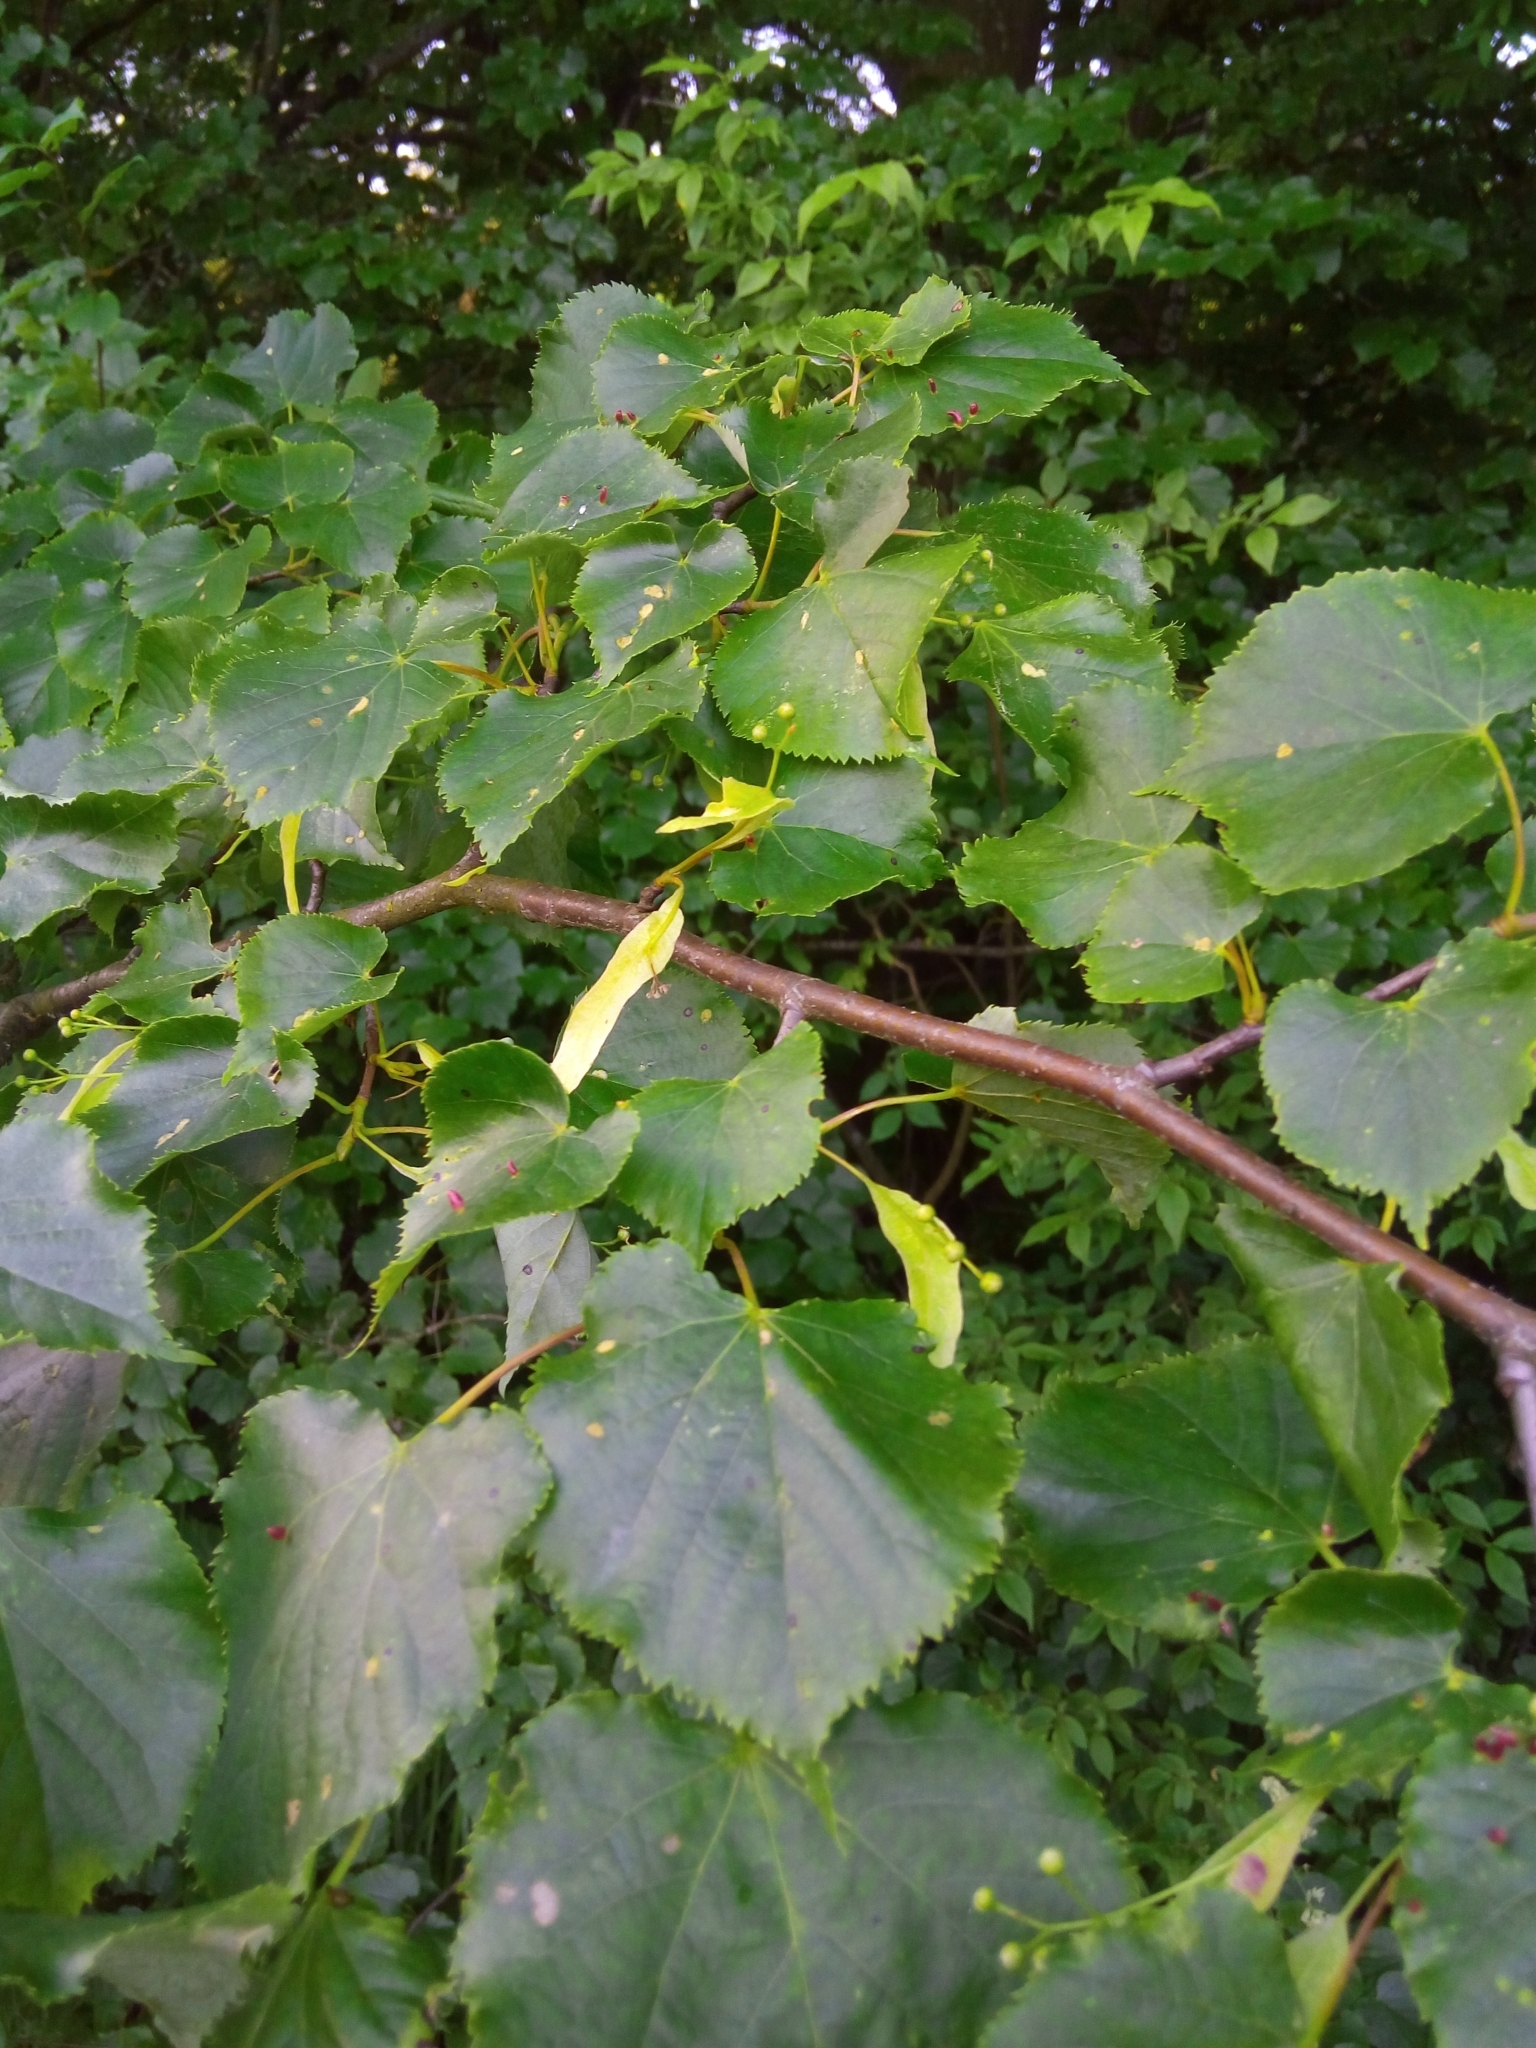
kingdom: Plantae
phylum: Tracheophyta
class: Magnoliopsida
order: Malvales
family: Malvaceae
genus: Tilia
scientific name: Tilia cordata
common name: Small-leaved lime
